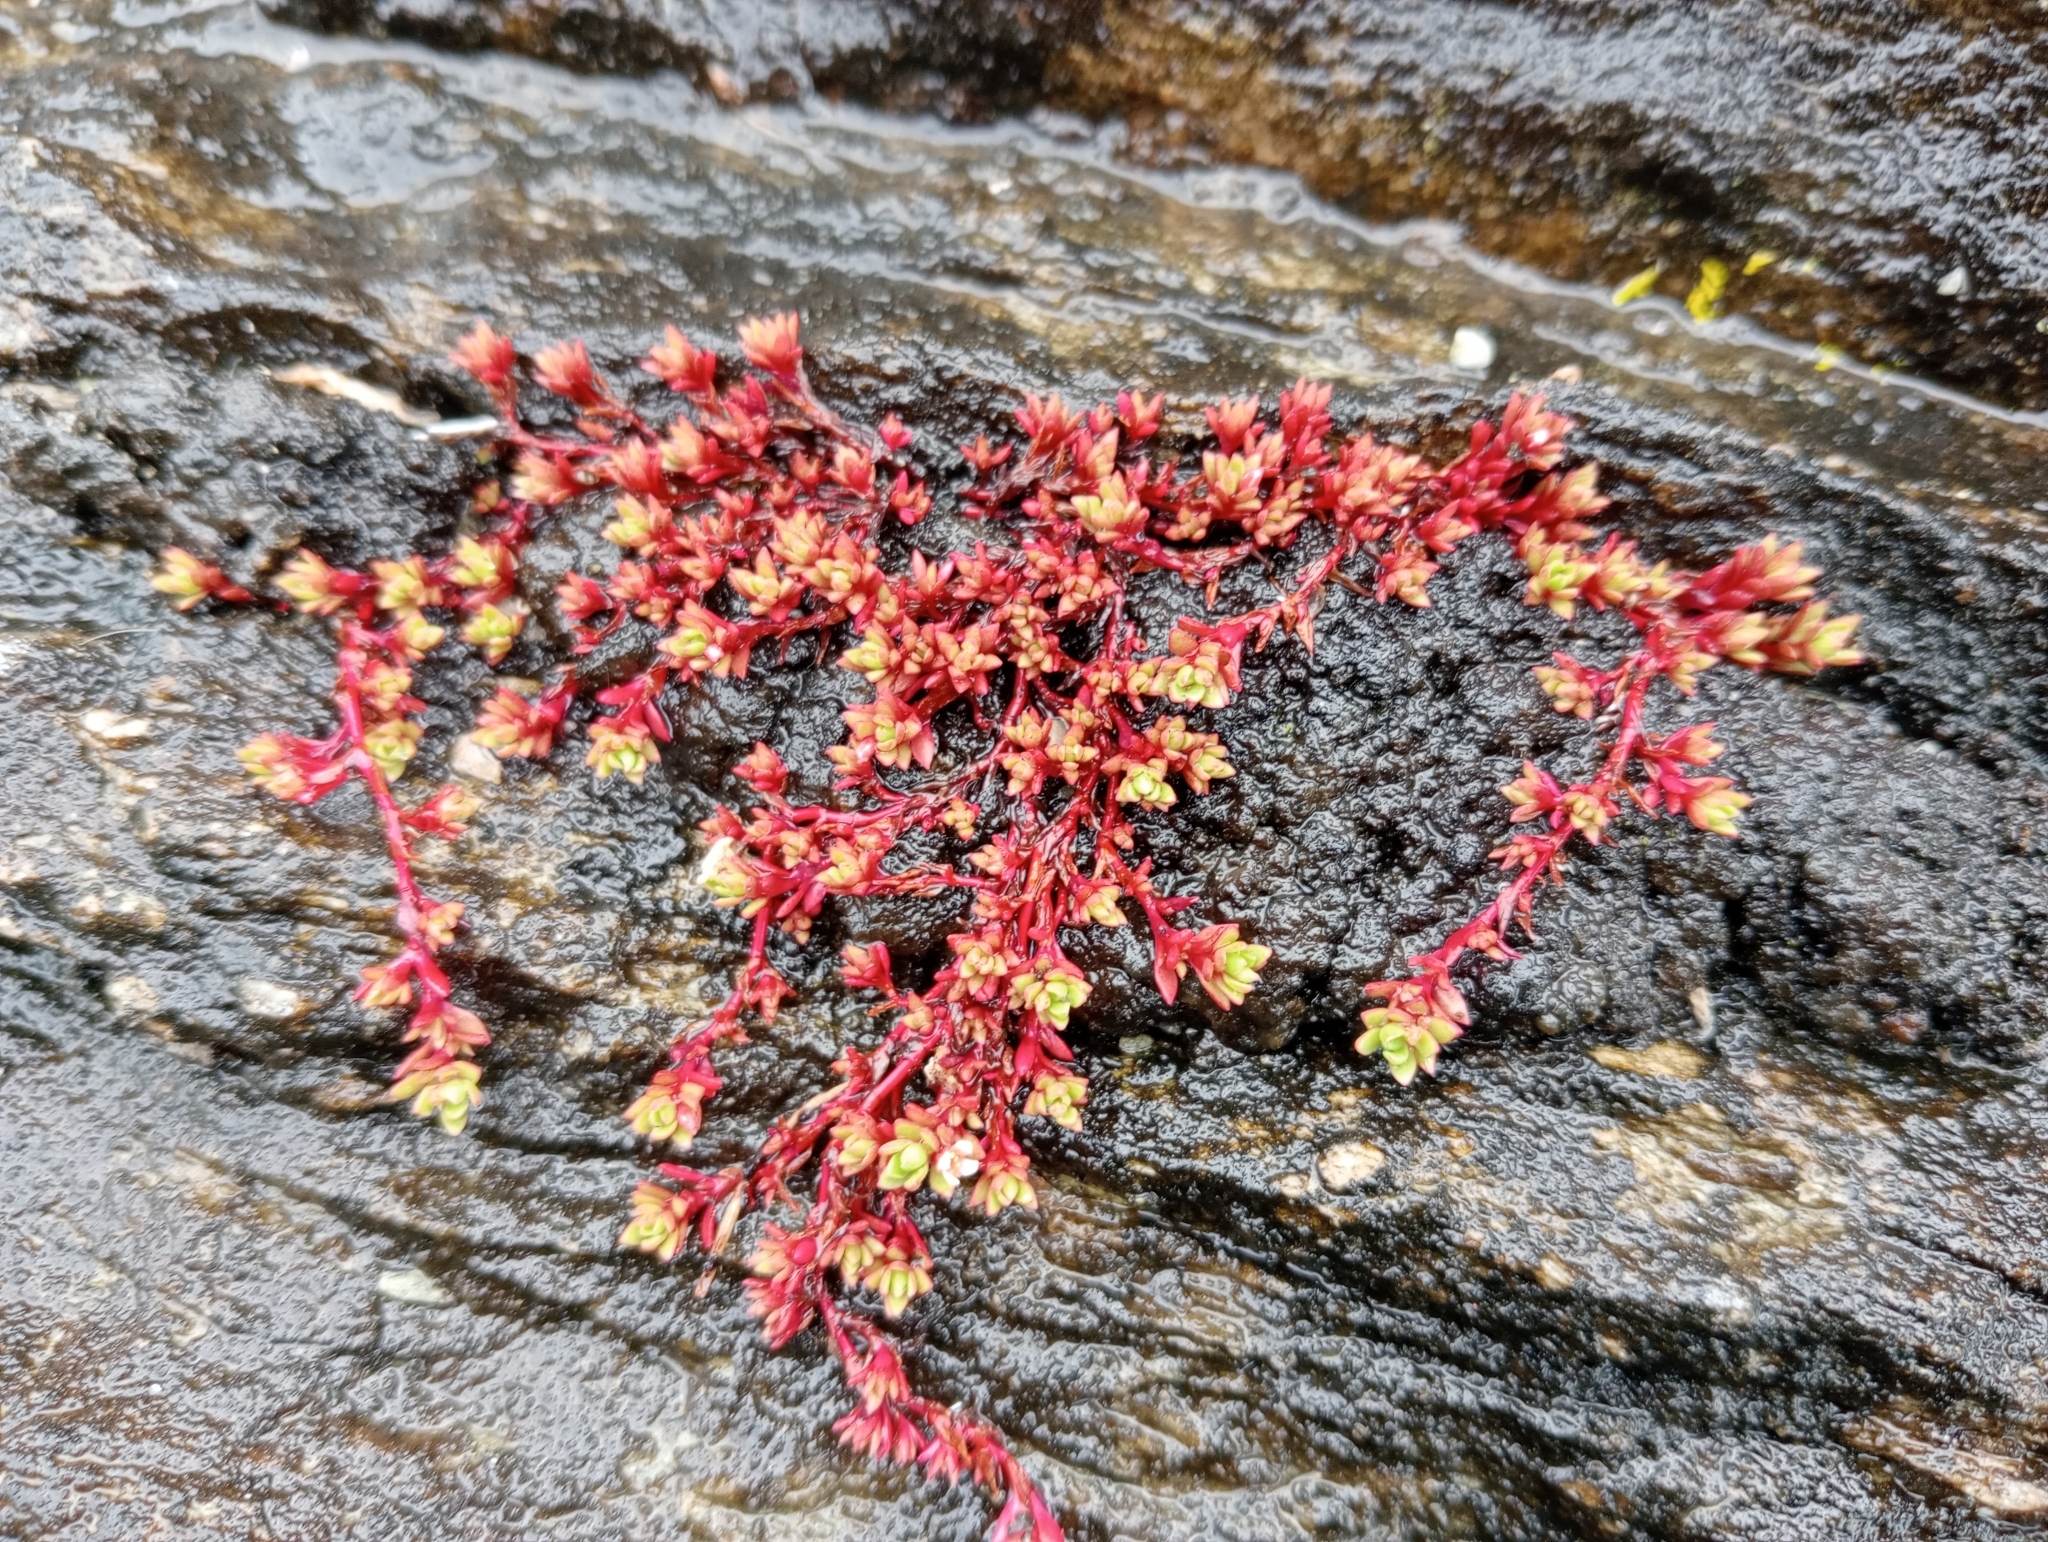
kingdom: Plantae
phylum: Tracheophyta
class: Magnoliopsida
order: Saxifragales
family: Crassulaceae
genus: Crassula
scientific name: Crassula moschata
